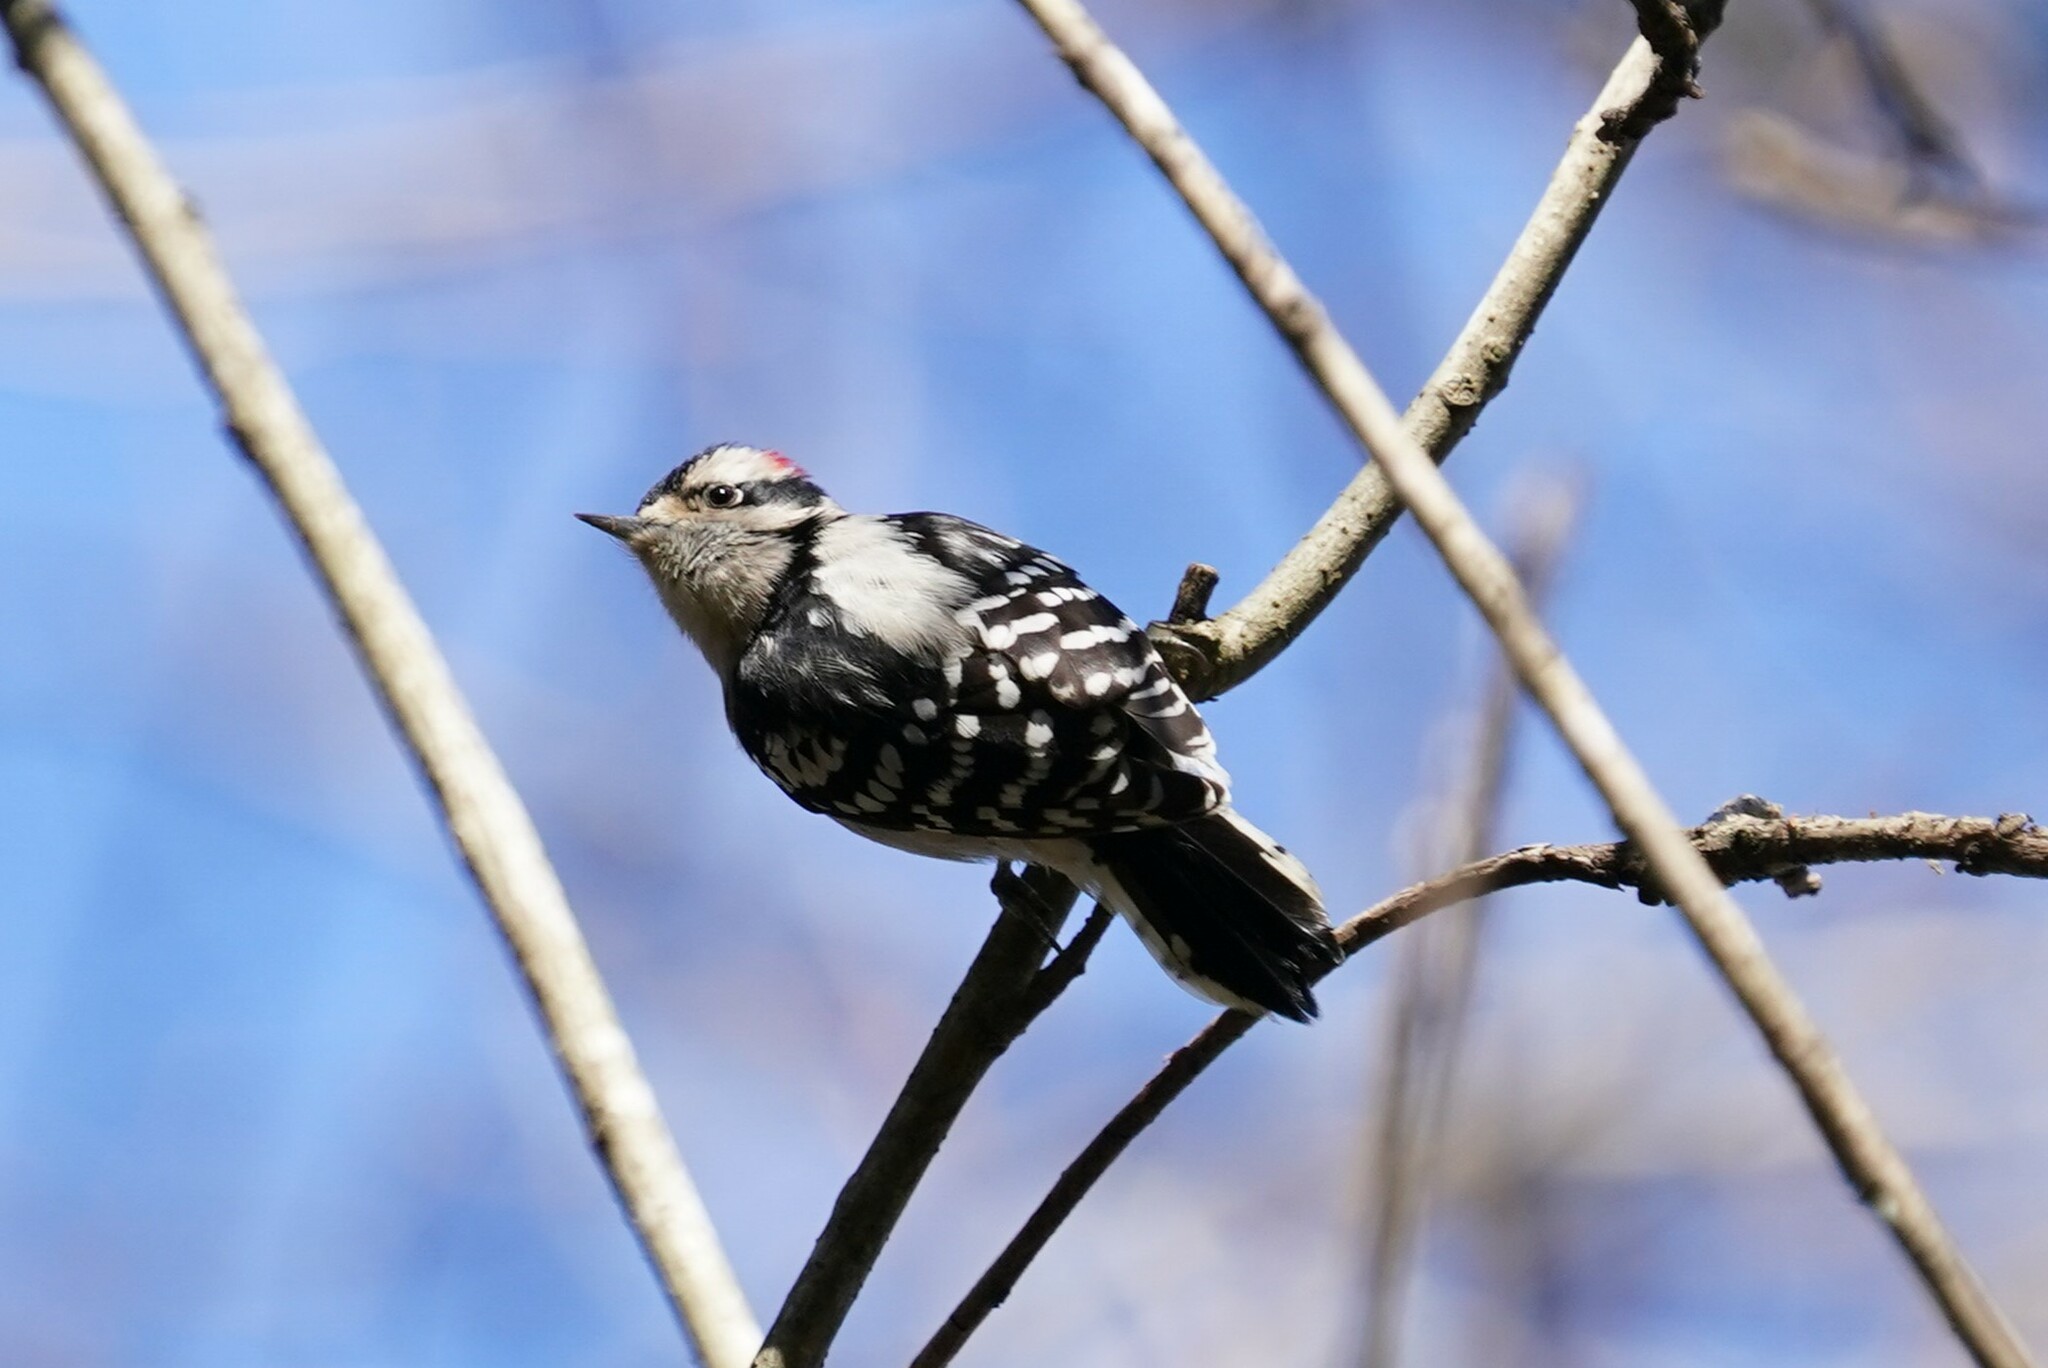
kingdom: Animalia
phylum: Chordata
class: Aves
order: Piciformes
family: Picidae
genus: Dryobates
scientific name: Dryobates pubescens
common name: Downy woodpecker
